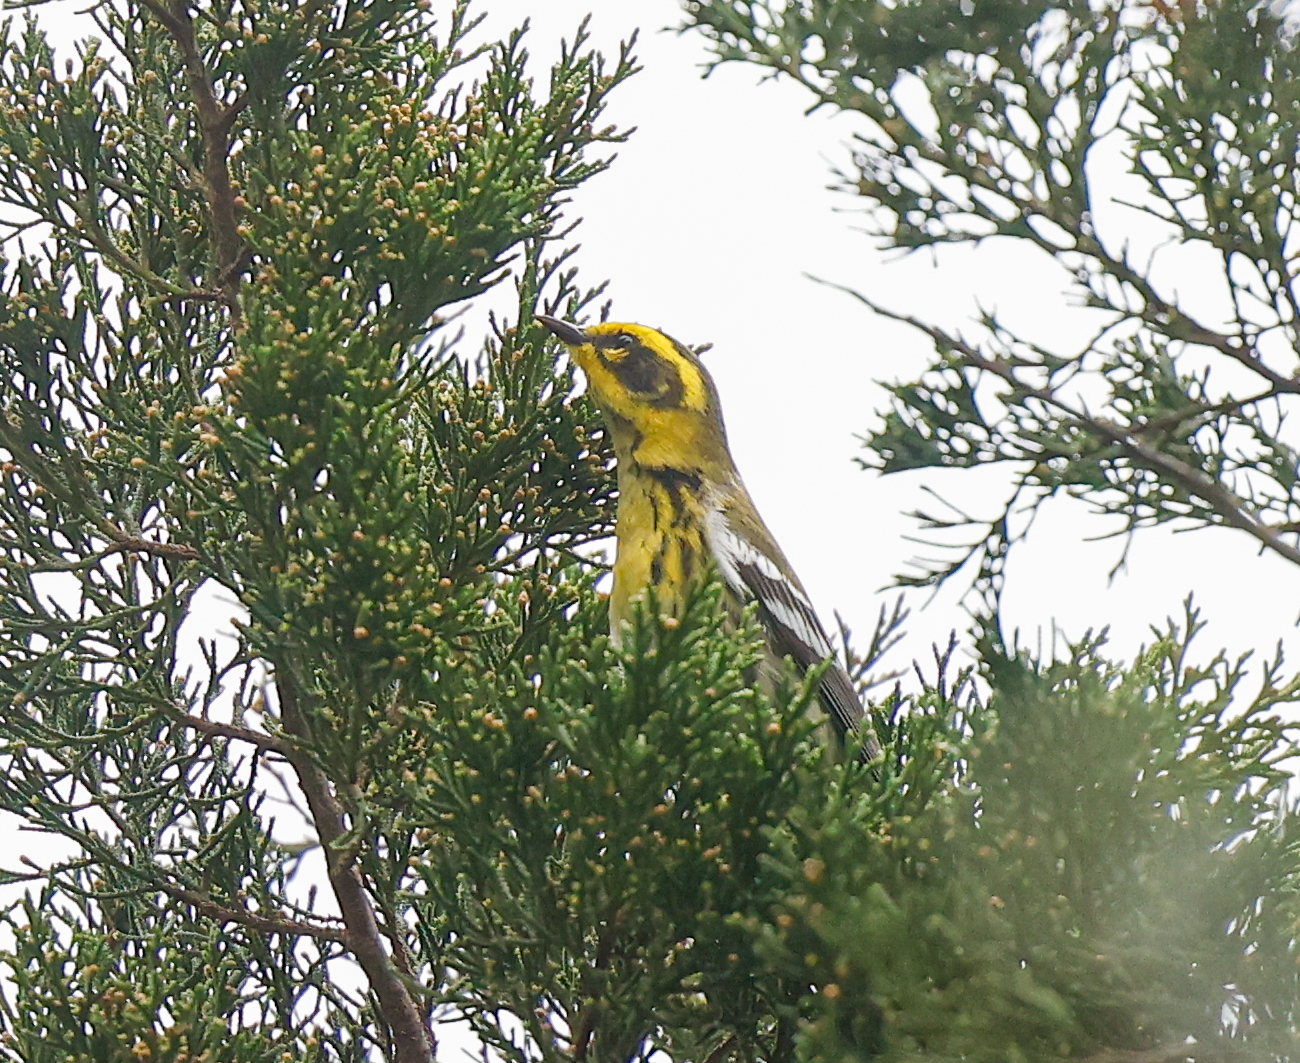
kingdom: Animalia
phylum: Chordata
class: Aves
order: Passeriformes
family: Parulidae
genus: Setophaga
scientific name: Setophaga townsendi
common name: Townsend's warbler
